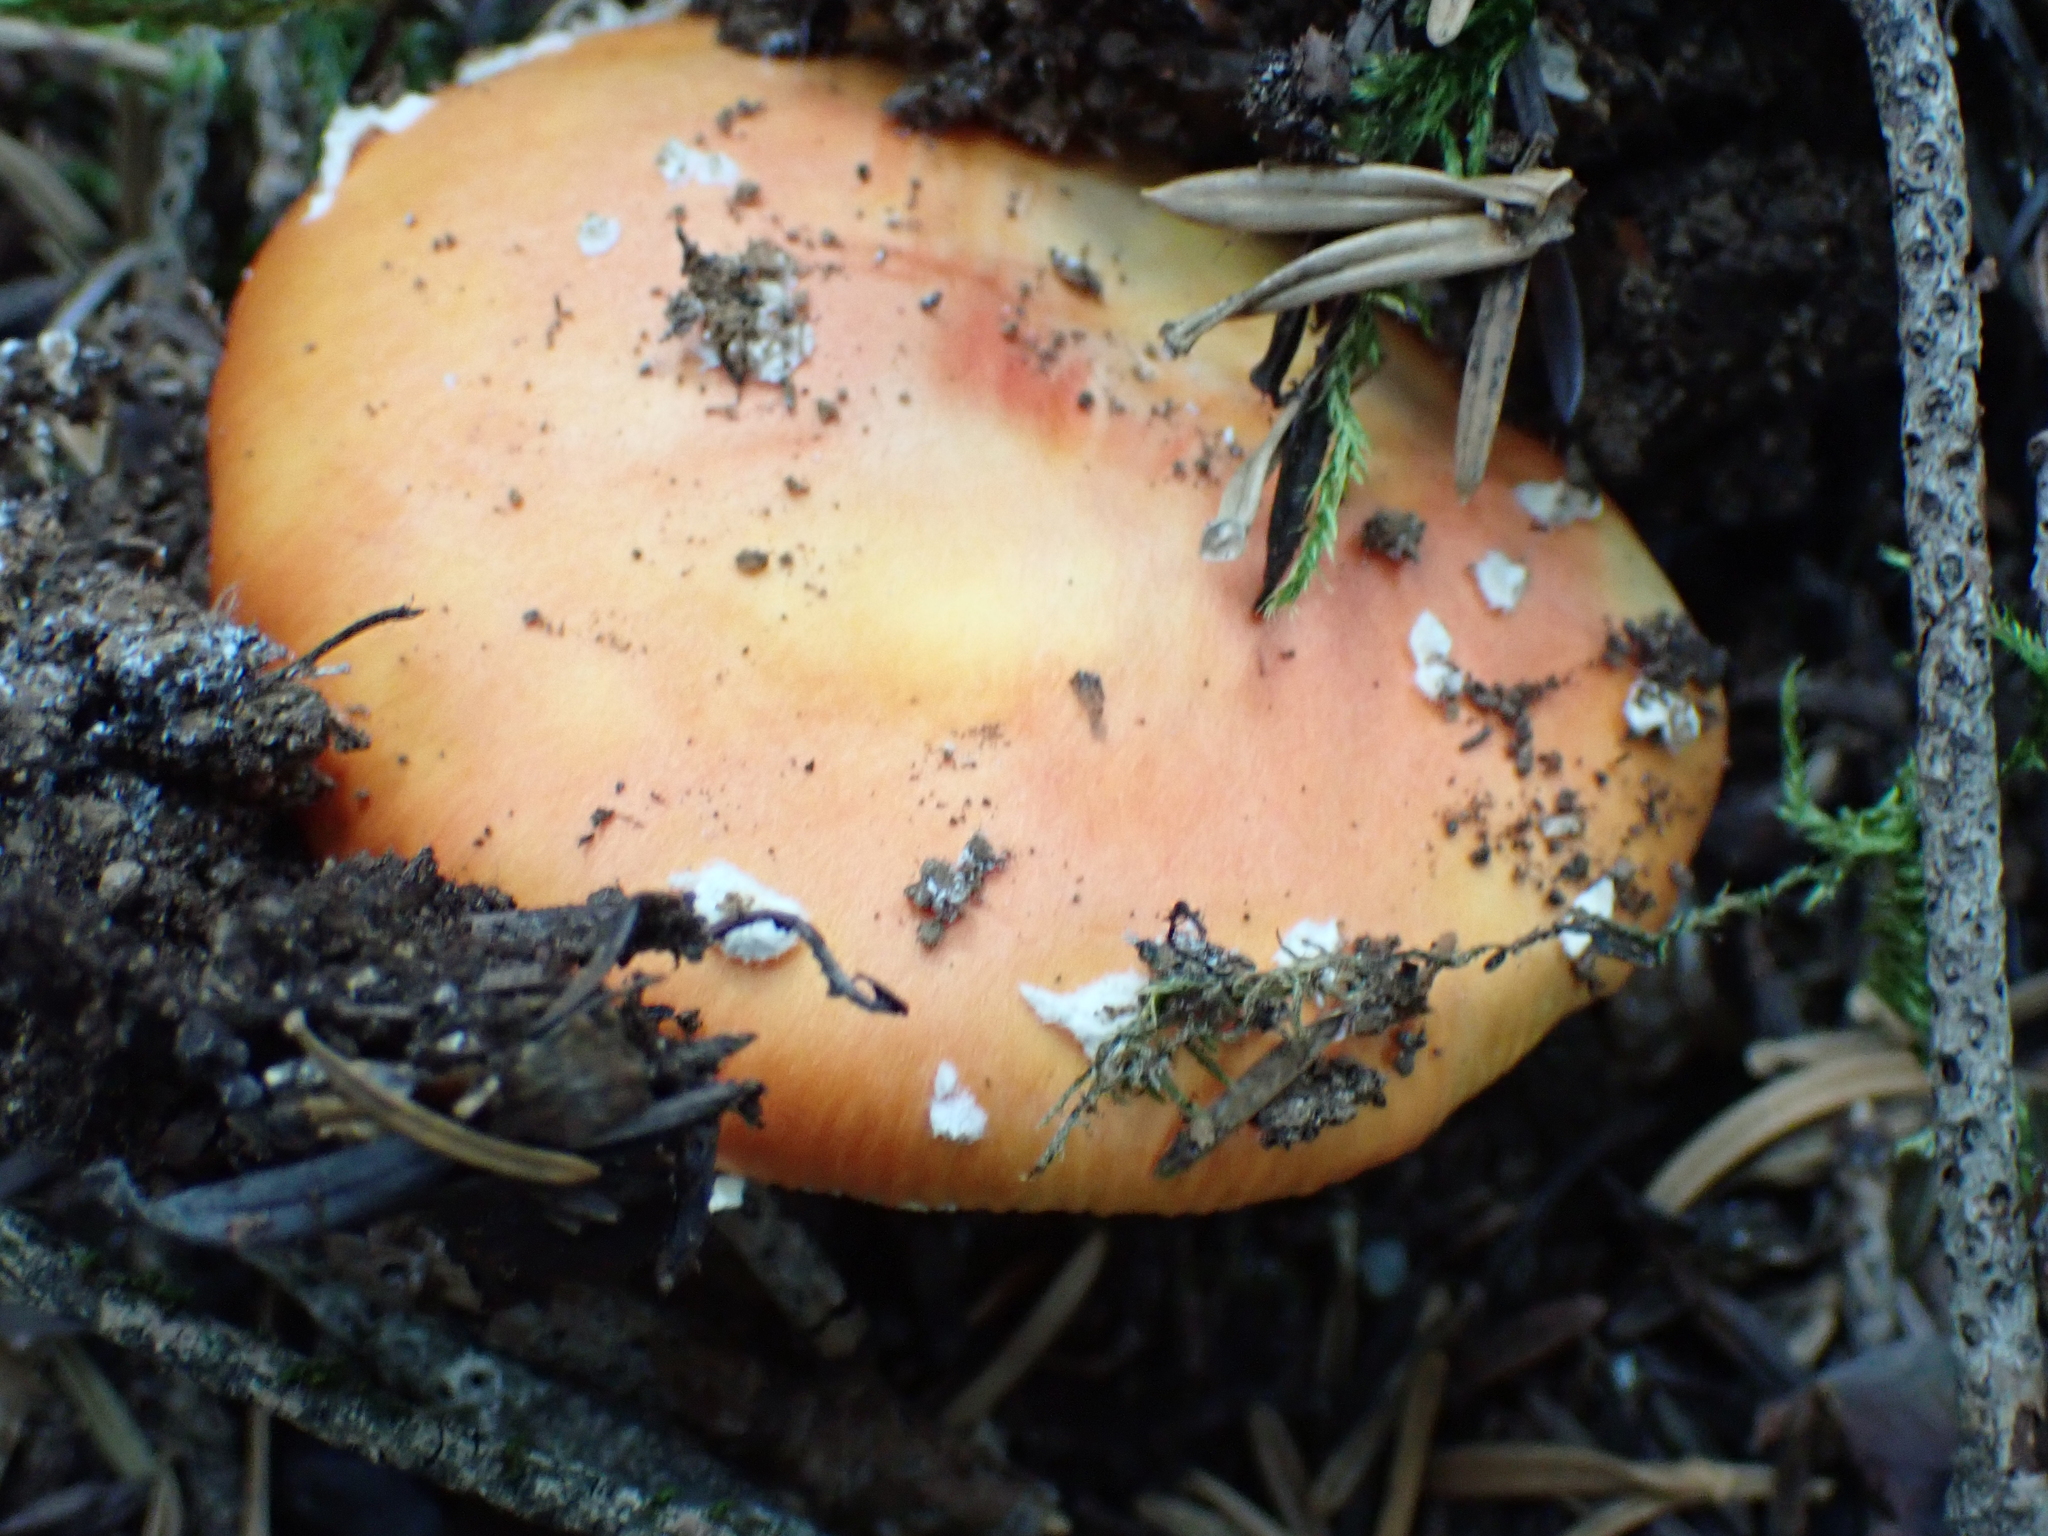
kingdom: Fungi
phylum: Basidiomycota
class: Agaricomycetes
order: Agaricales
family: Amanitaceae
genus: Amanita
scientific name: Amanita muscaria
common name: Fly agaric
